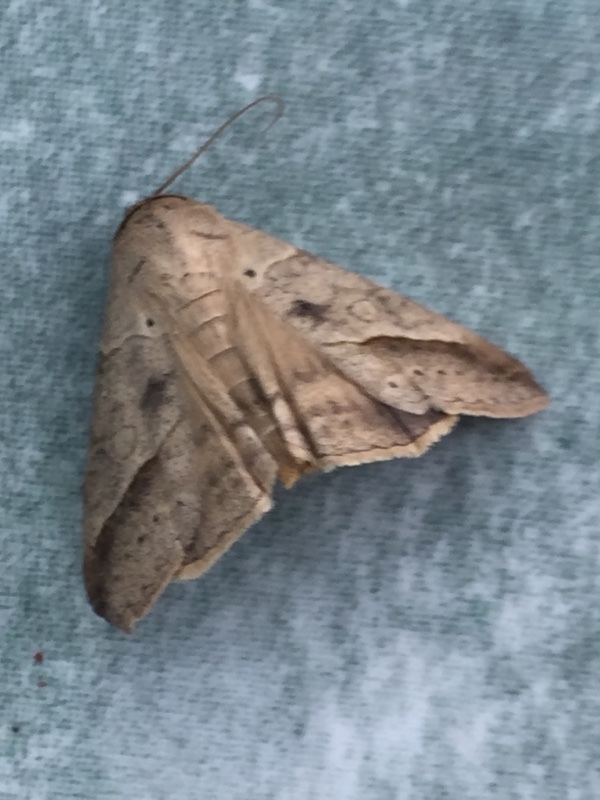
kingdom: Animalia
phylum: Arthropoda
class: Insecta
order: Lepidoptera
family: Erebidae
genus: Mocis
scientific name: Mocis latipes
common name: Striped grass looper
